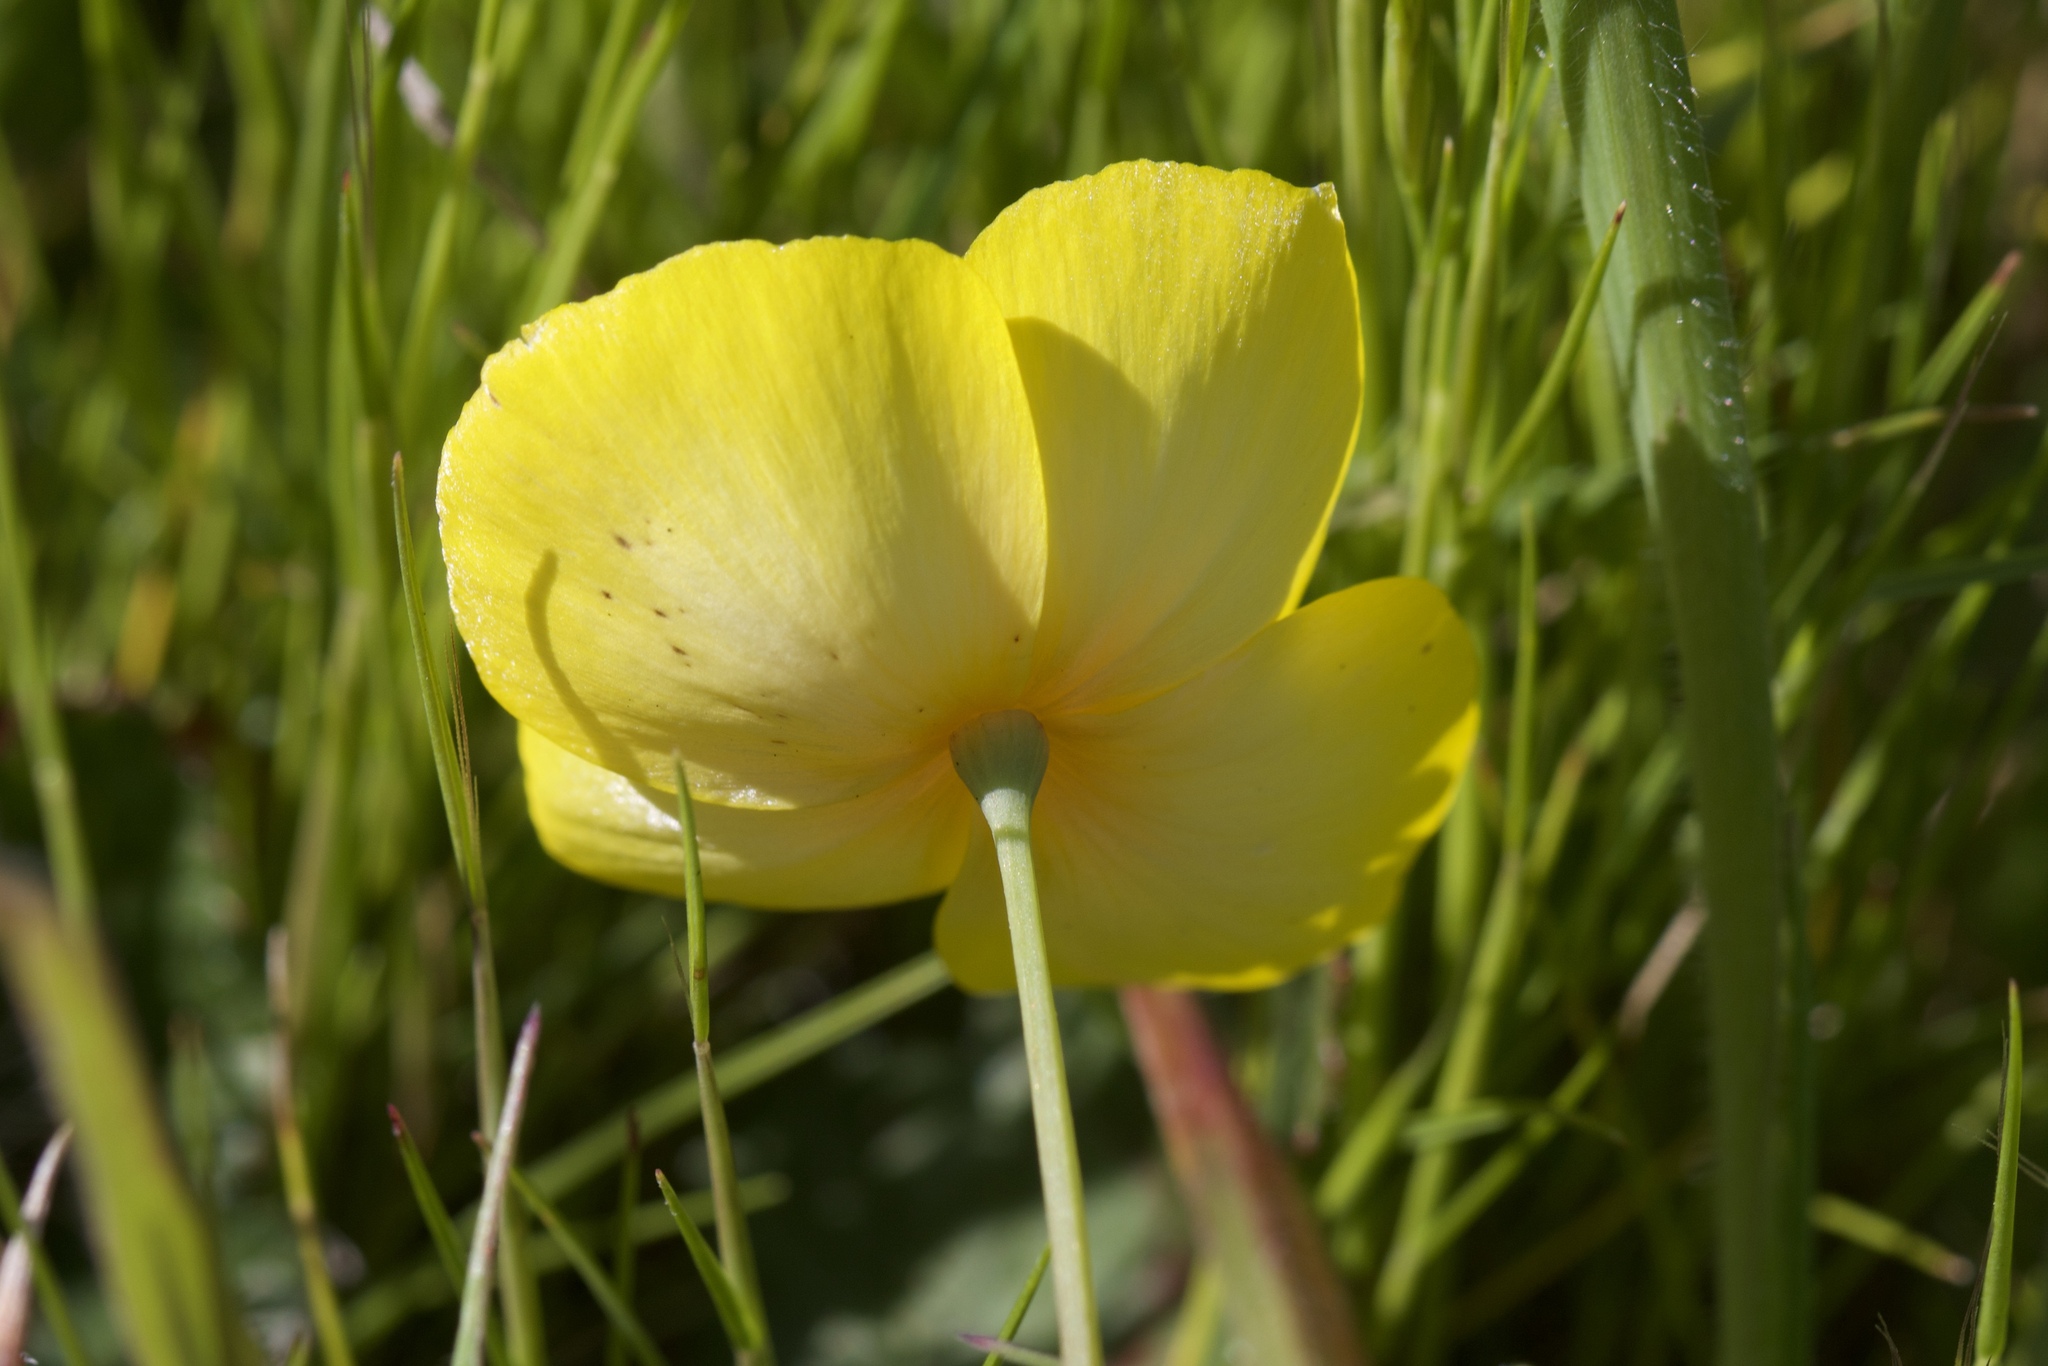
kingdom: Plantae
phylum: Tracheophyta
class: Magnoliopsida
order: Ranunculales
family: Papaveraceae
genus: Eschscholzia
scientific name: Eschscholzia lobbii
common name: Frying-pans
